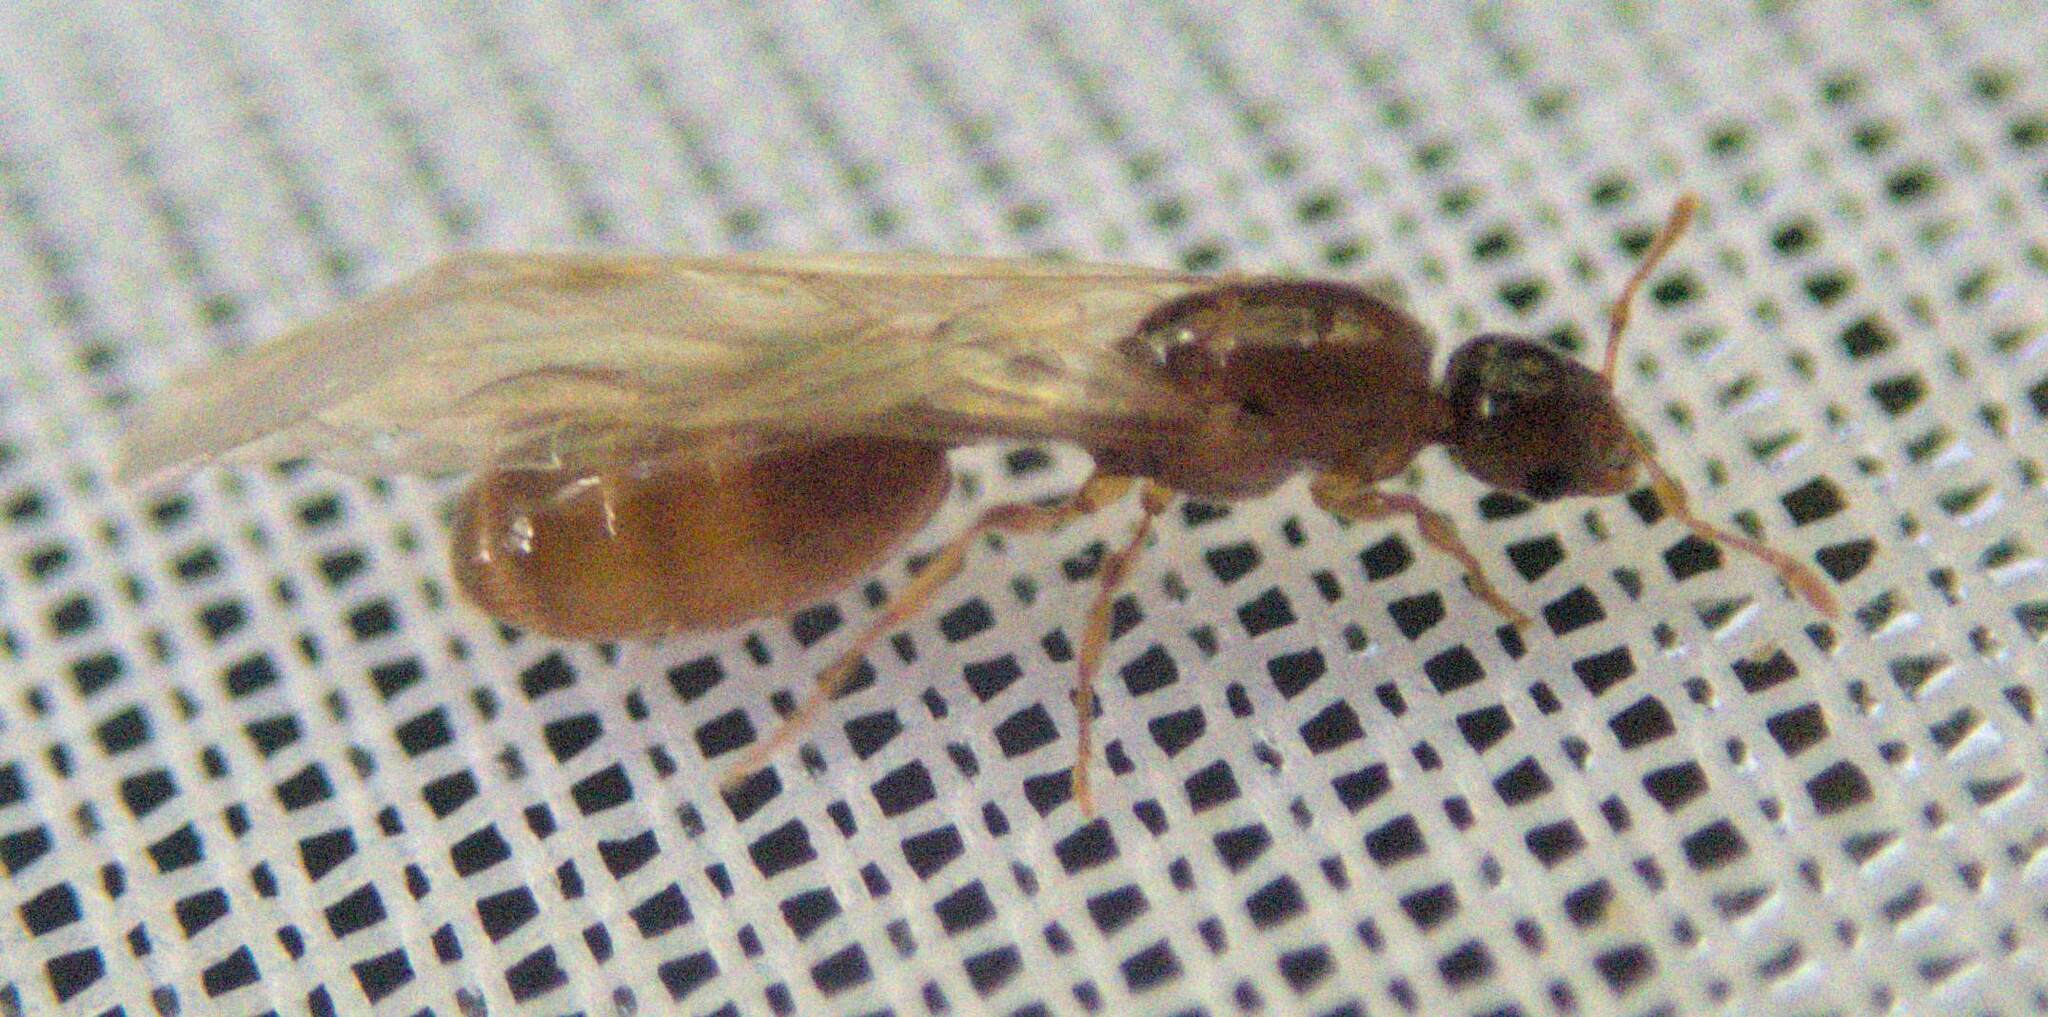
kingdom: Animalia
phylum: Arthropoda
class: Insecta
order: Hymenoptera
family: Formicidae
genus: Solenopsis
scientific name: Solenopsis molesta
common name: Thief ant
